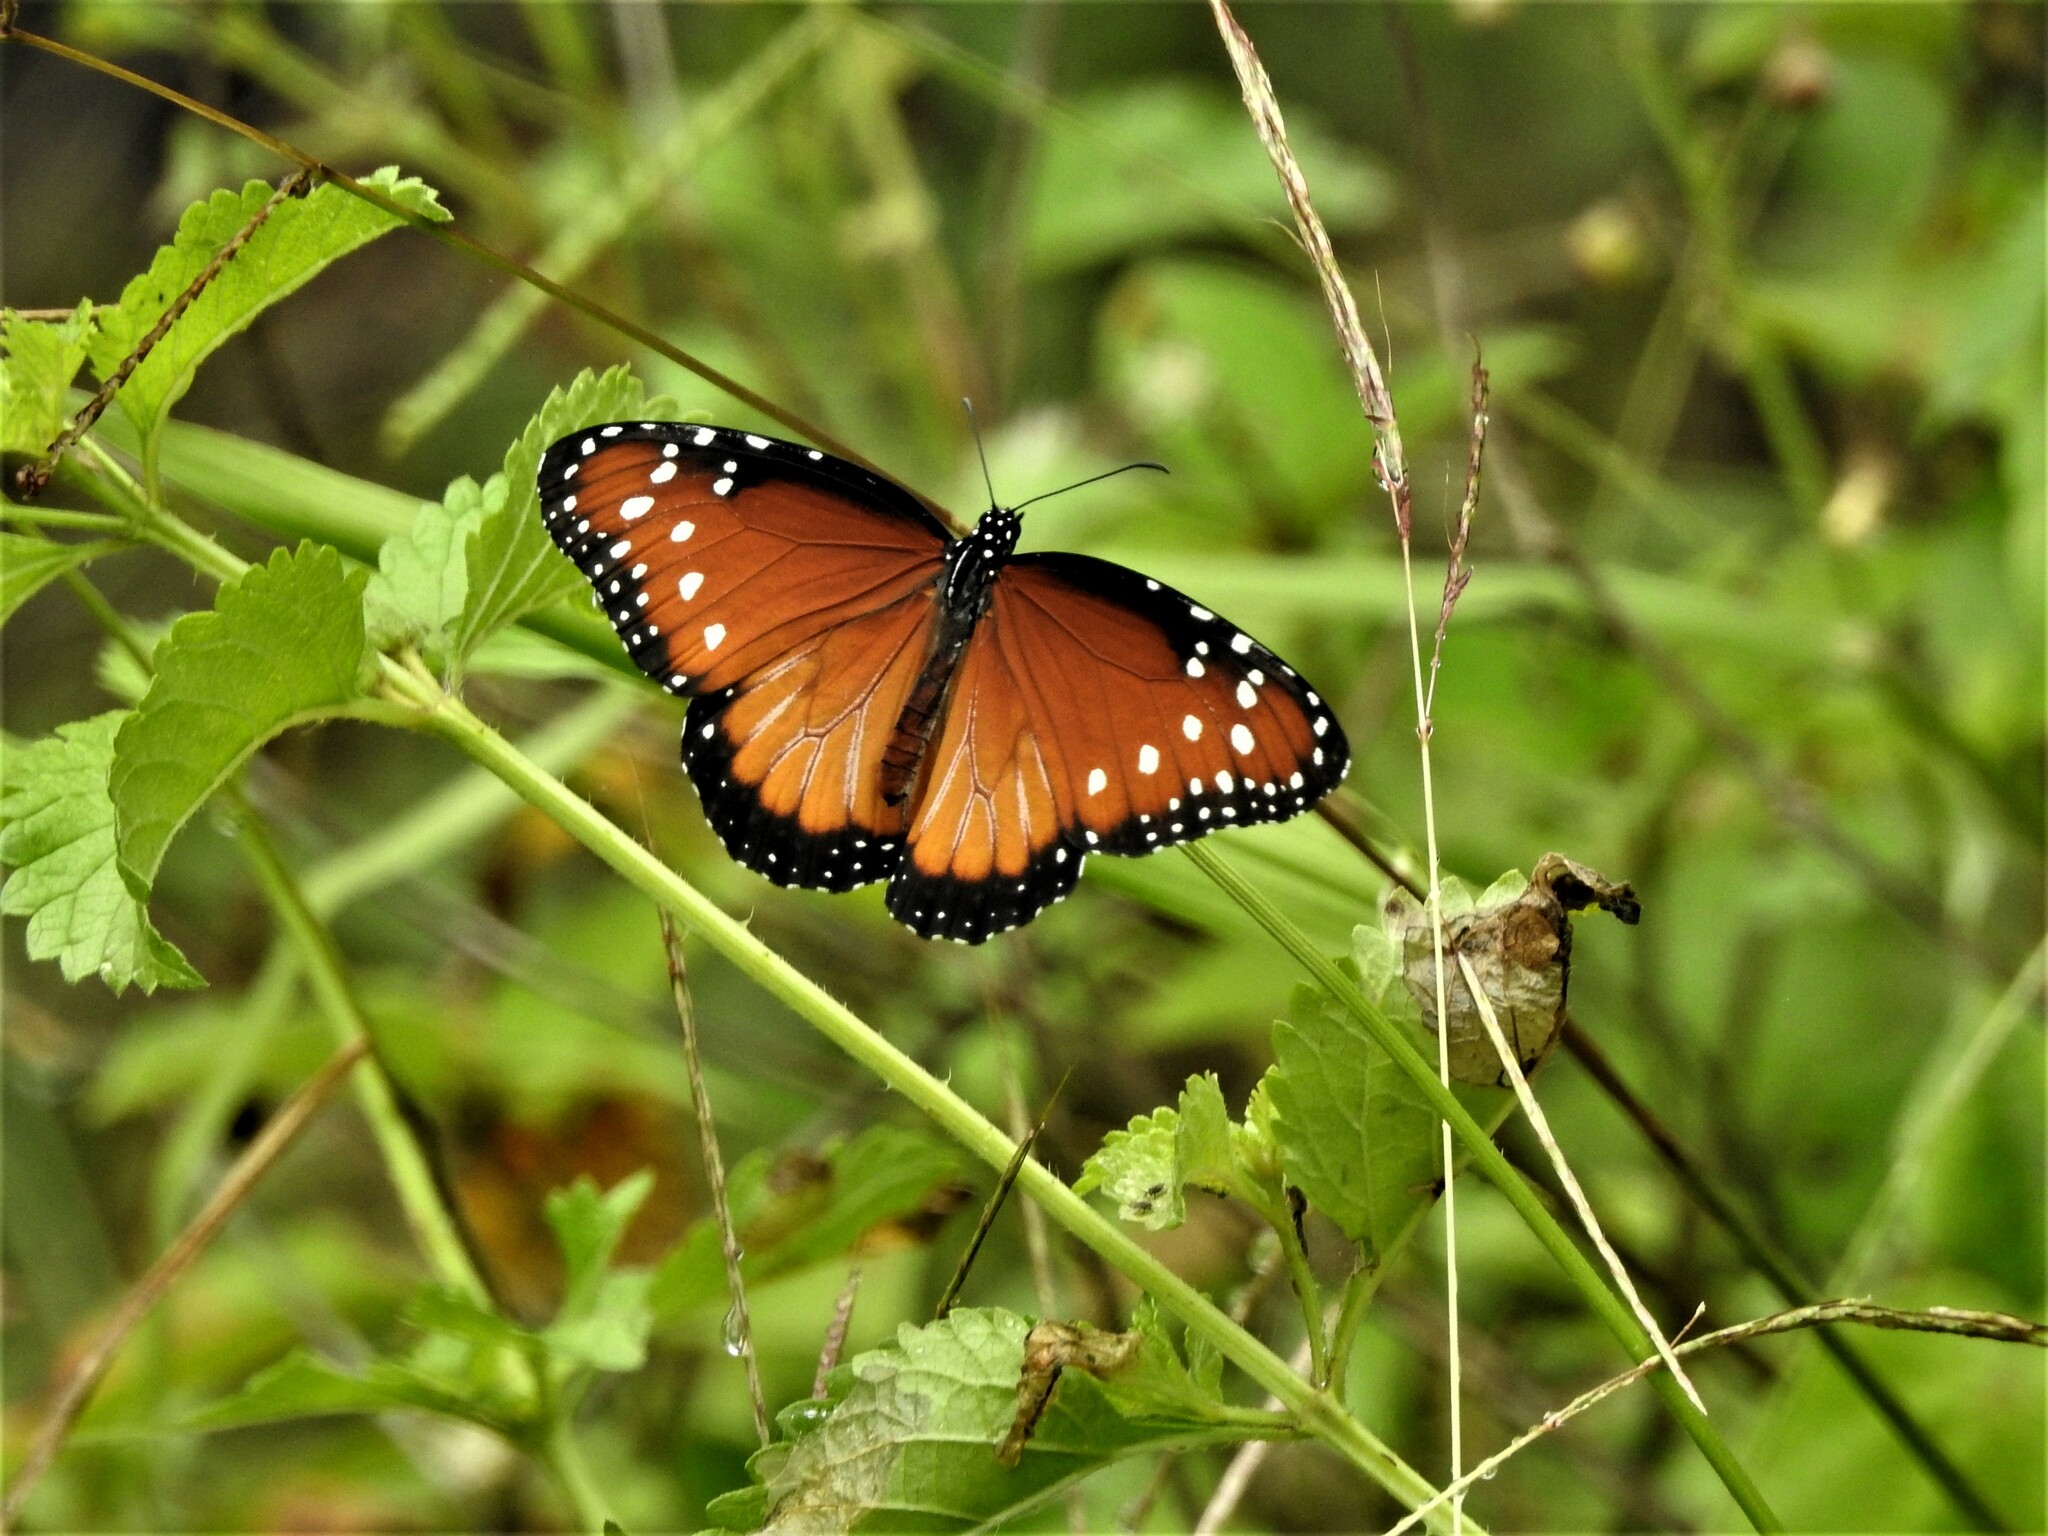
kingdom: Animalia
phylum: Arthropoda
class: Insecta
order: Lepidoptera
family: Nymphalidae
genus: Danaus
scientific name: Danaus gilippus
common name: Queen
